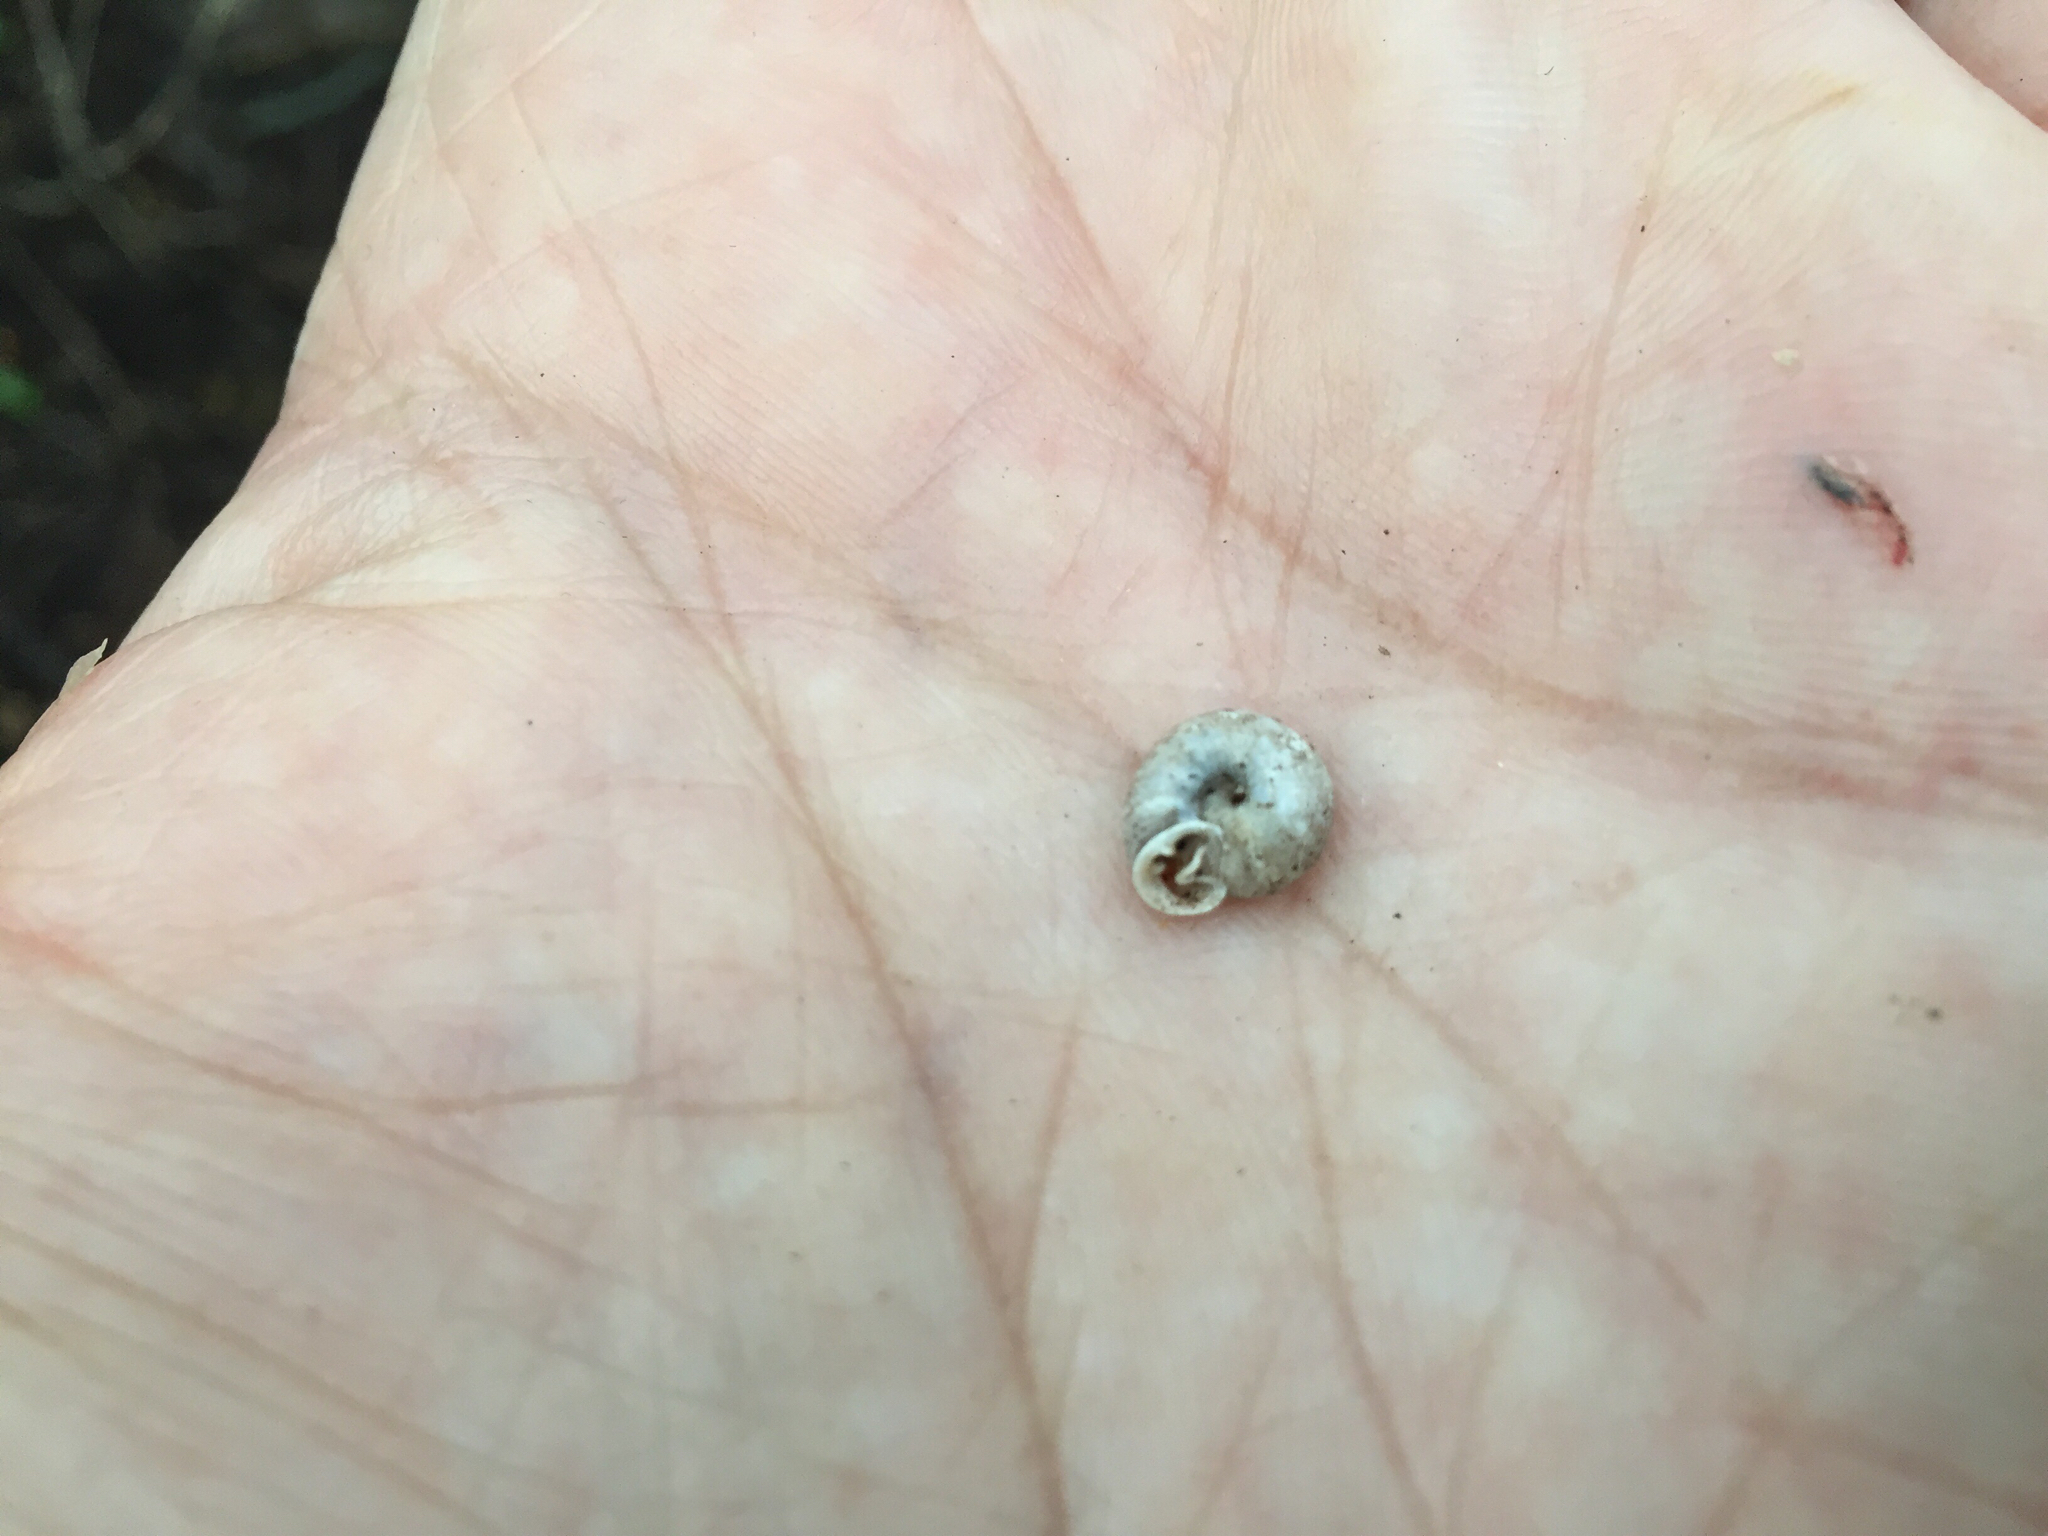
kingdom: Animalia
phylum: Mollusca
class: Gastropoda
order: Stylommatophora
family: Polygyridae
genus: Linisa
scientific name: Linisa texasiana
